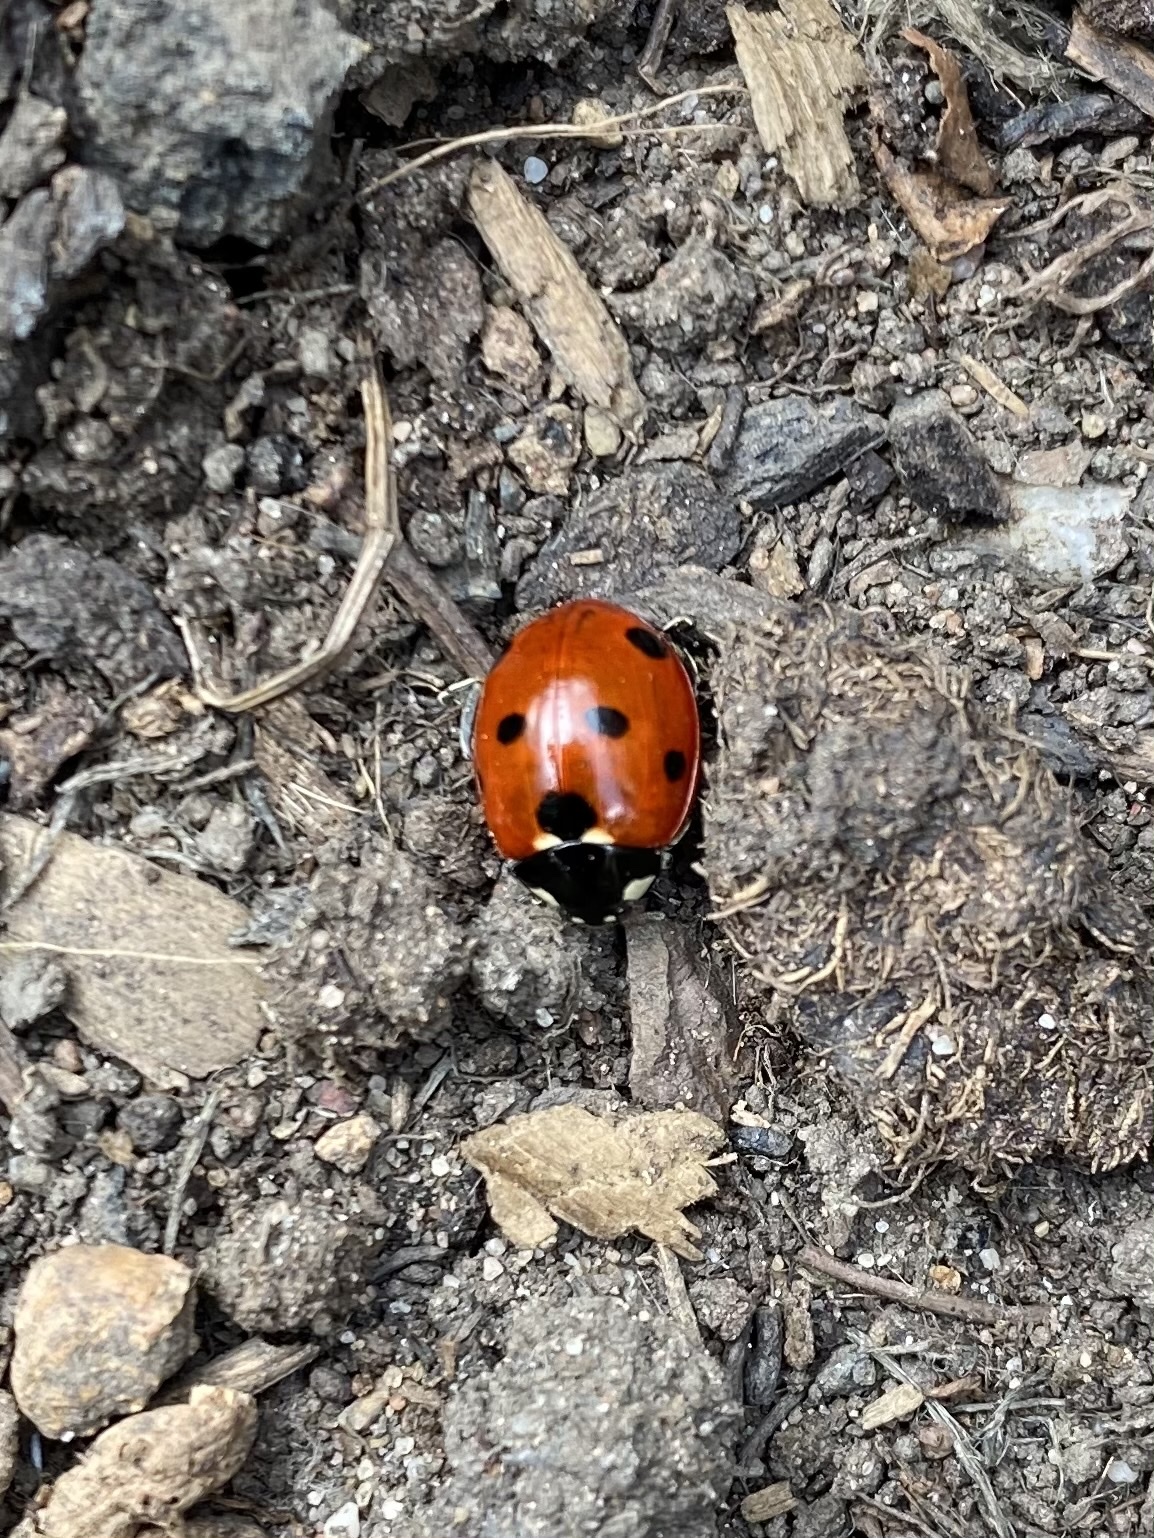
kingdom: Animalia
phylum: Arthropoda
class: Insecta
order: Coleoptera
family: Coccinellidae
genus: Coccinella
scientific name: Coccinella septempunctata
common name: Sevenspotted lady beetle
